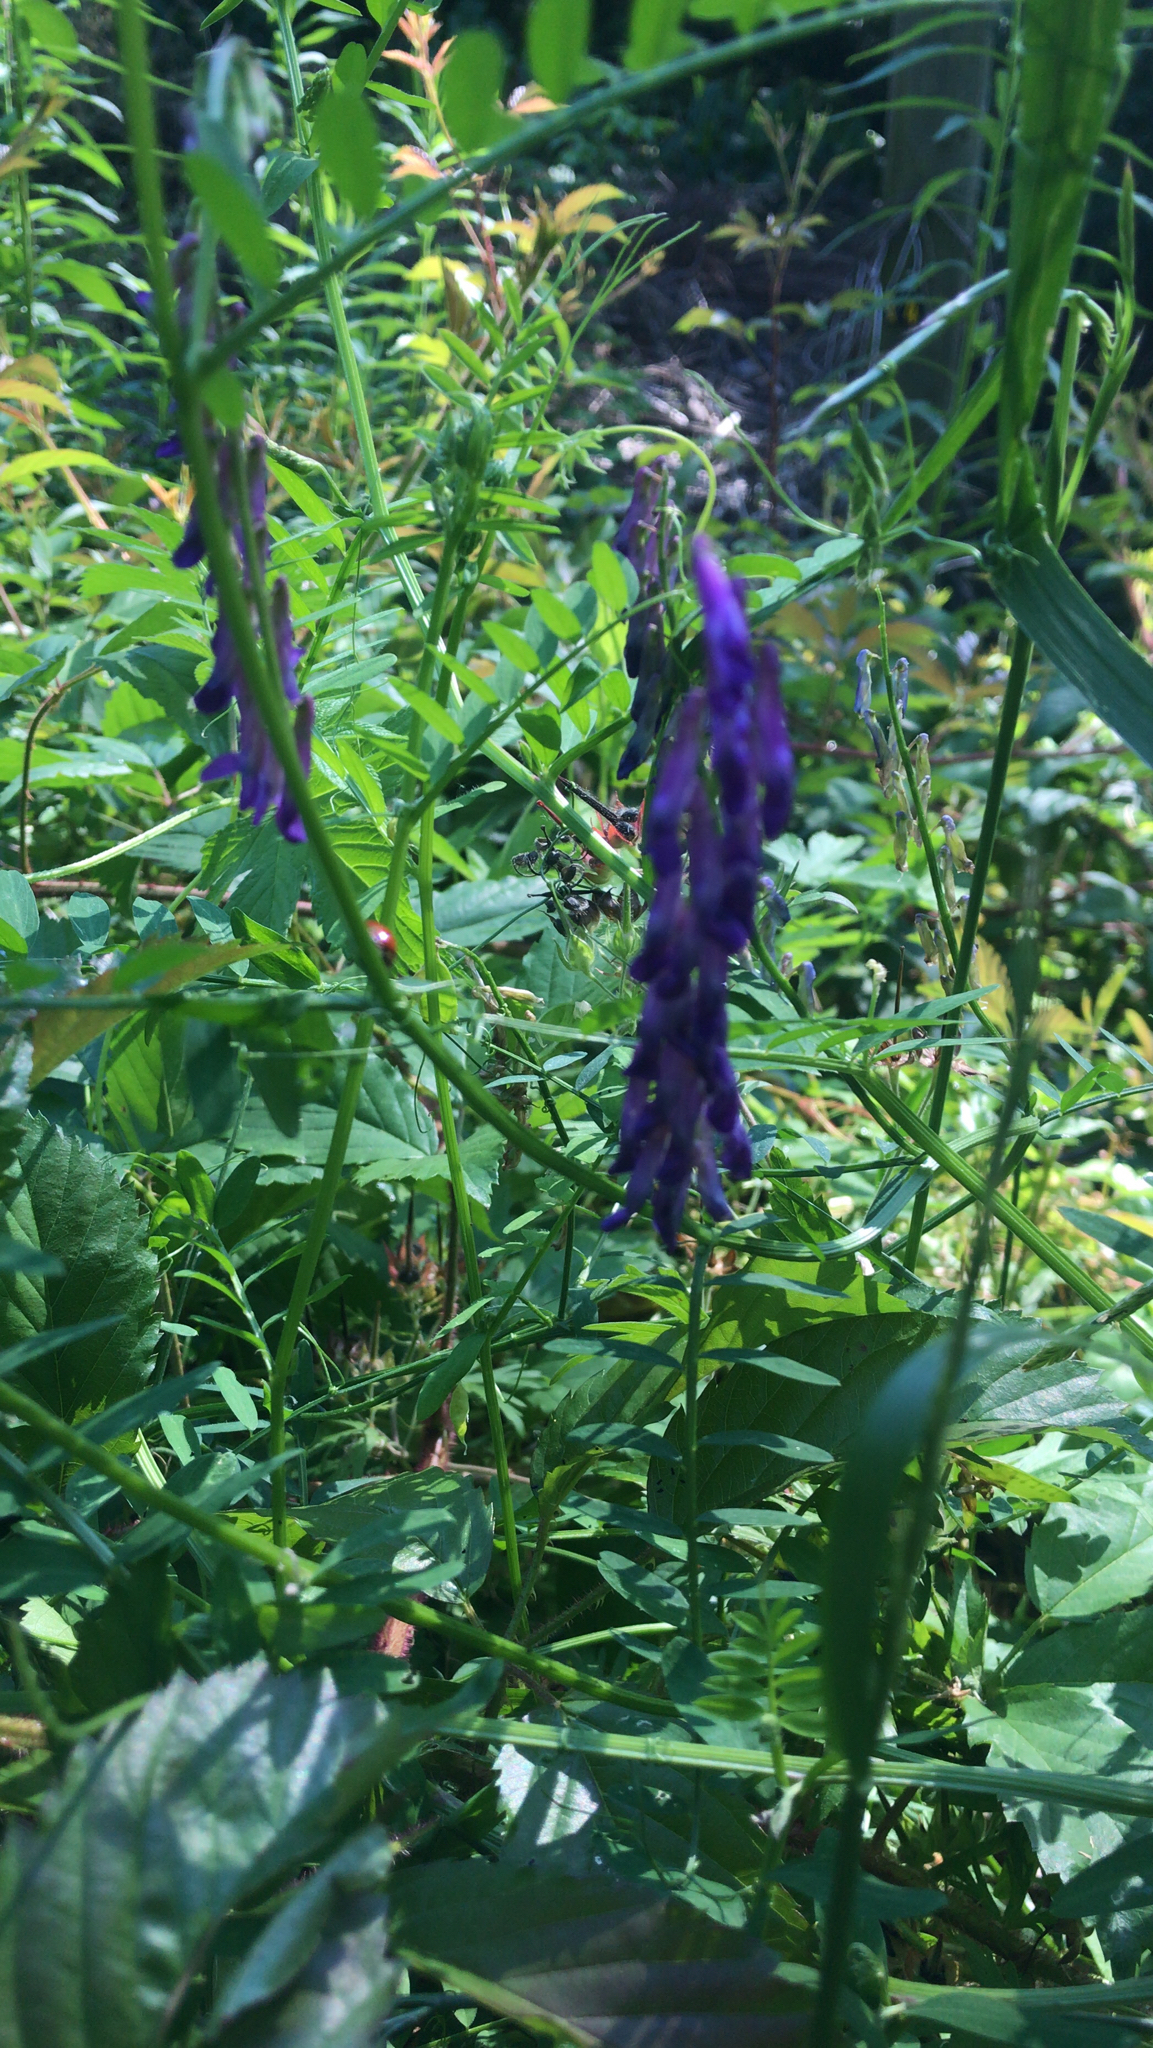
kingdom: Plantae
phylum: Tracheophyta
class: Magnoliopsida
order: Fabales
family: Fabaceae
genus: Vicia
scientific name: Vicia villosa
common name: Fodder vetch
